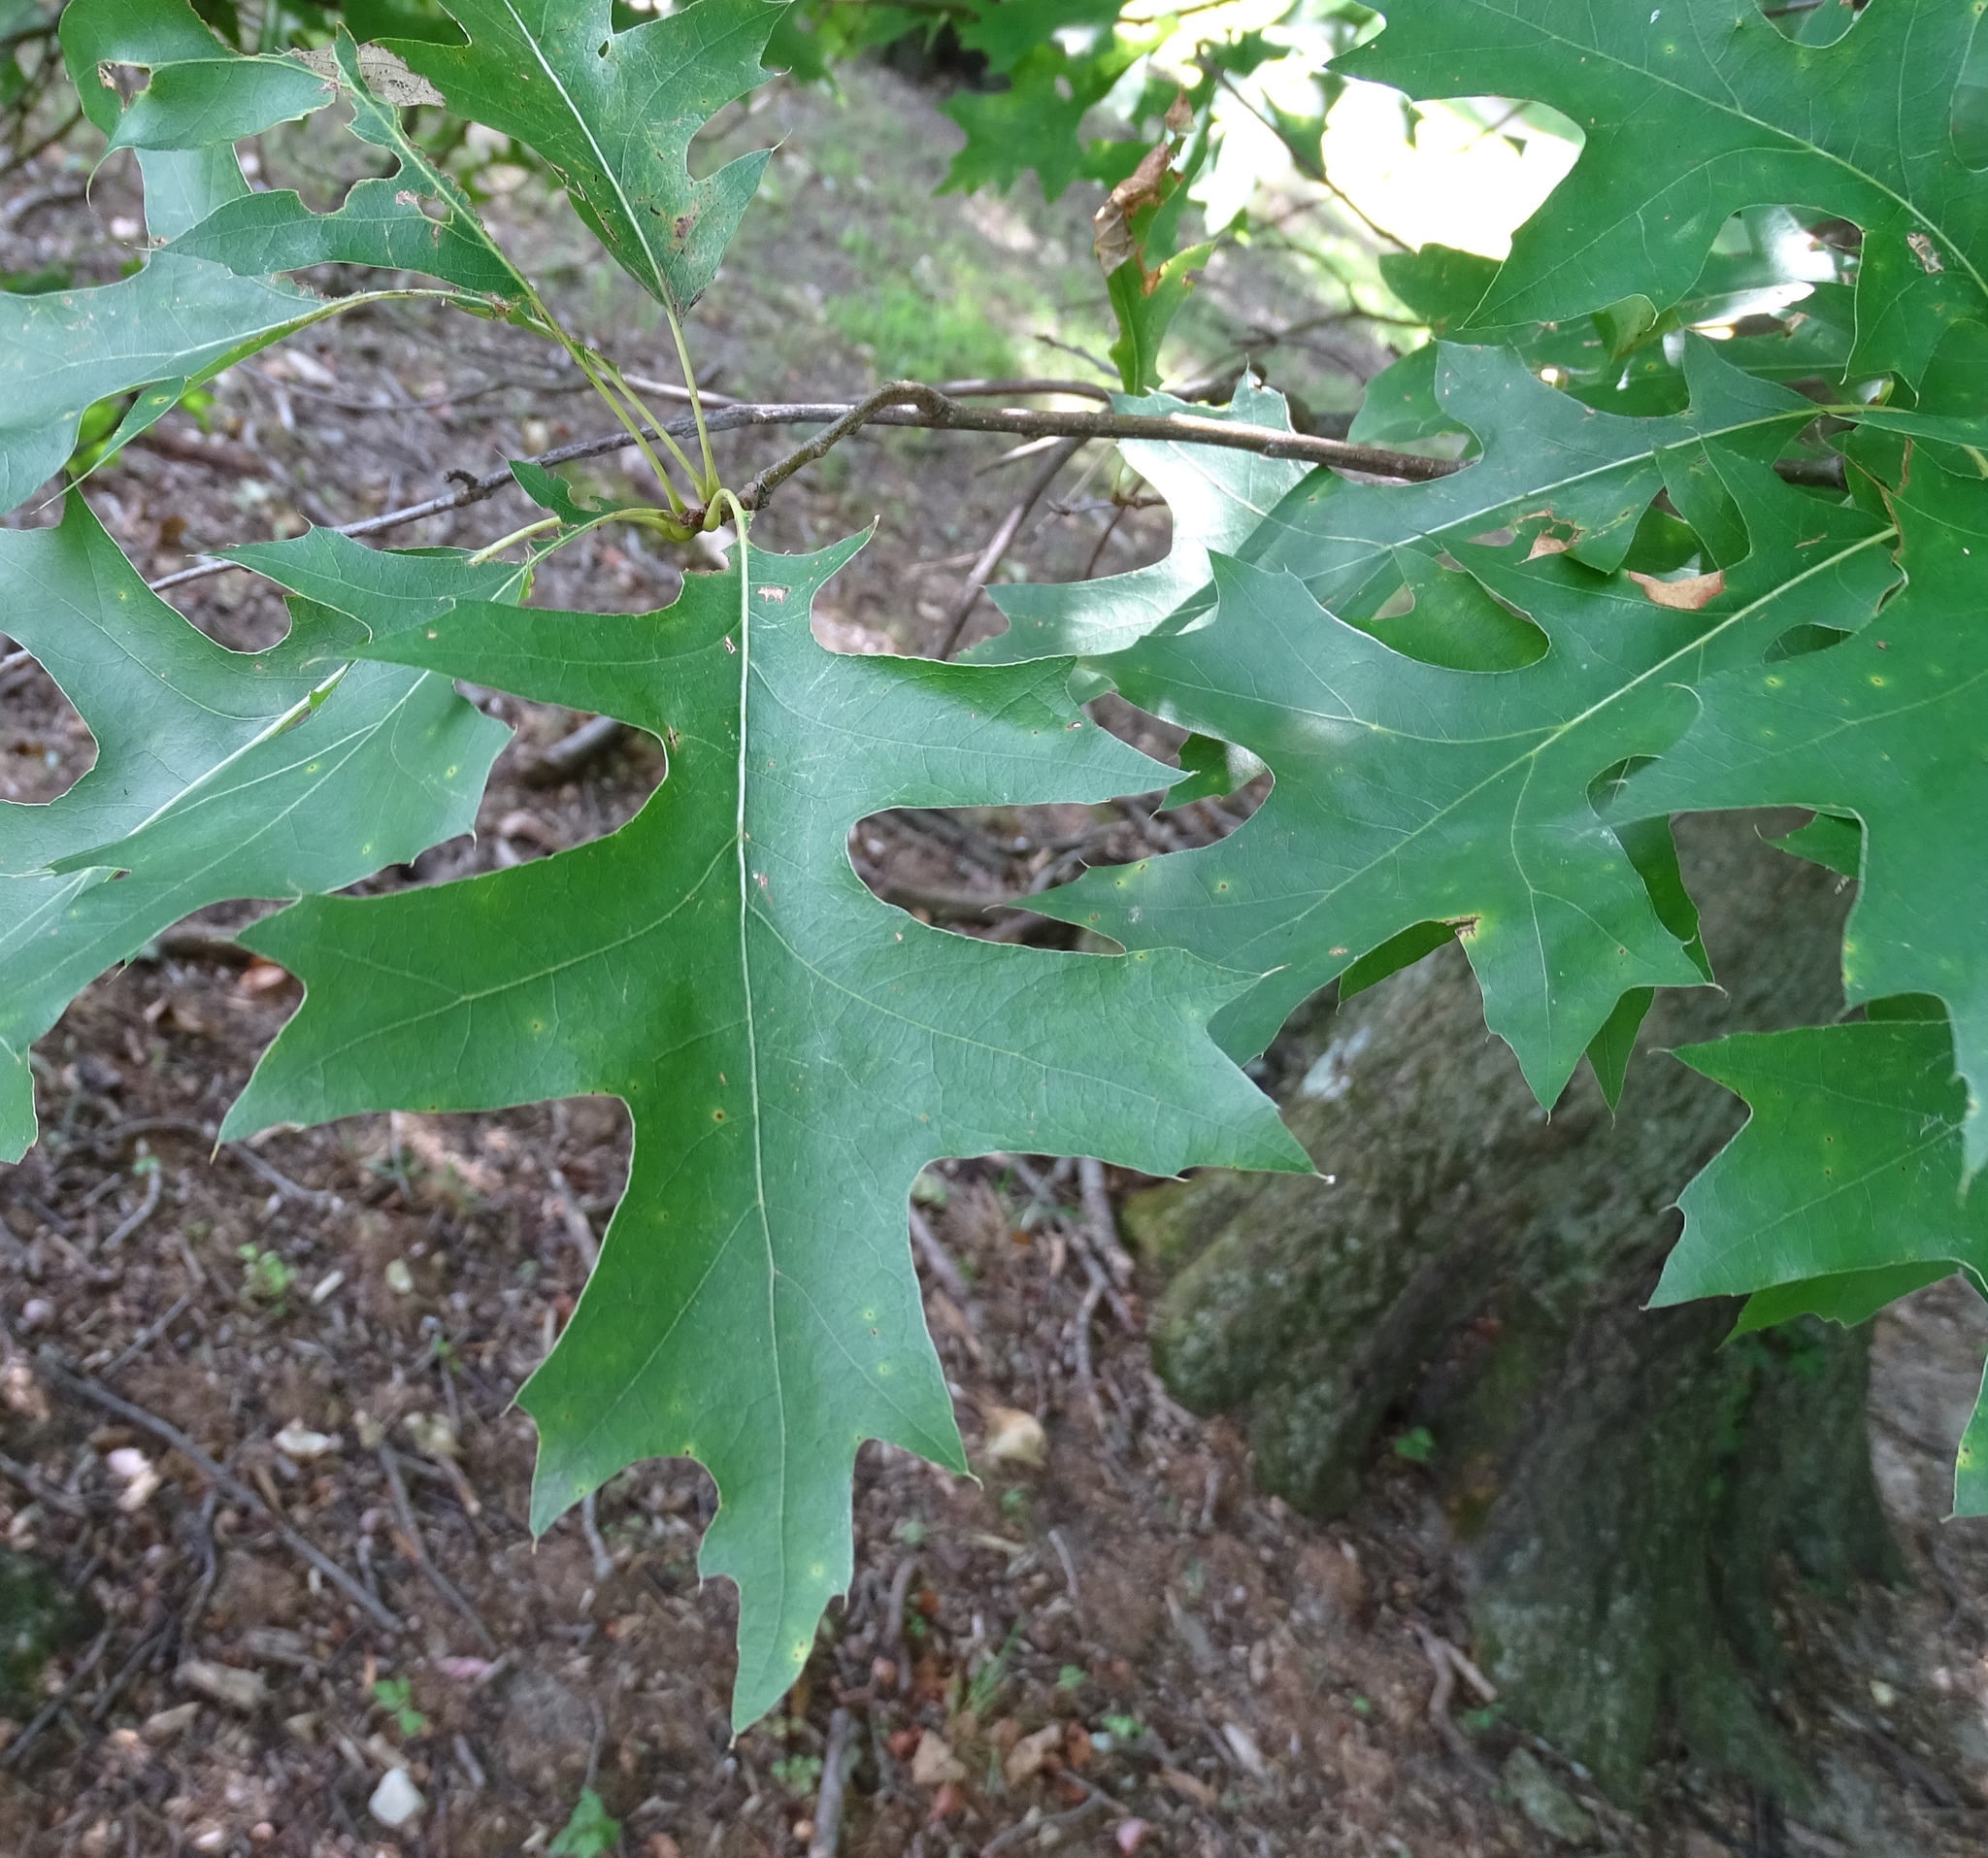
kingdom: Plantae
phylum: Tracheophyta
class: Magnoliopsida
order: Fagales
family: Fagaceae
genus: Quercus
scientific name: Quercus palustris
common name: Pin oak
